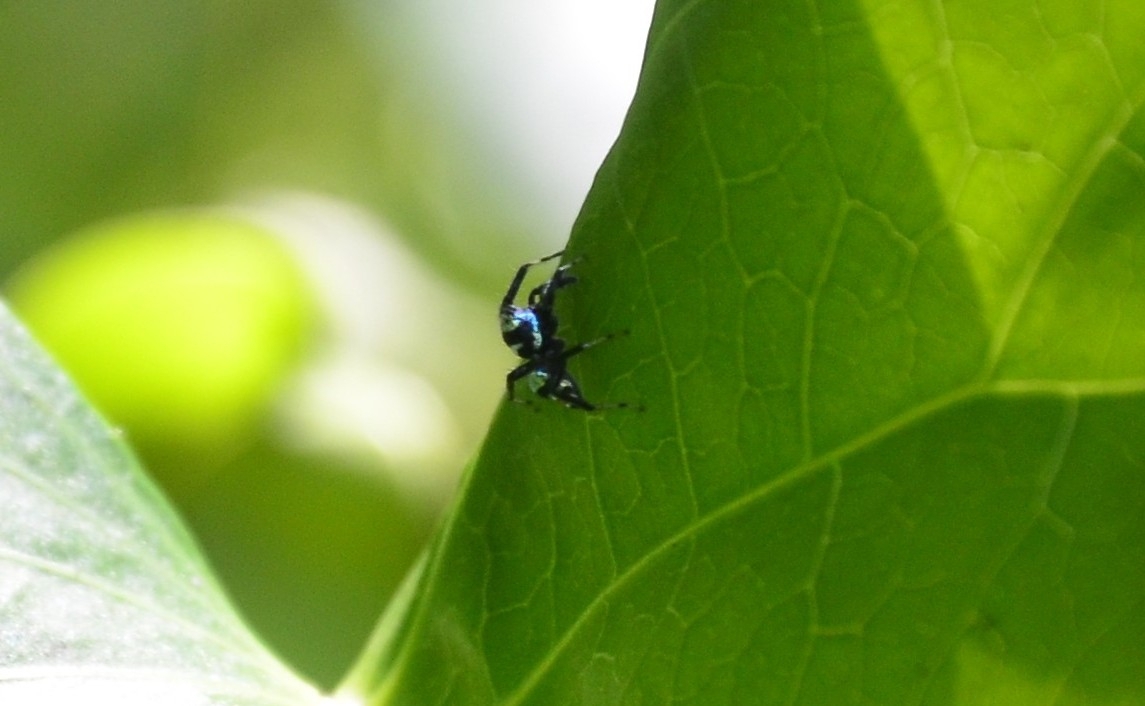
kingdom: Animalia
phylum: Arthropoda
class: Arachnida
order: Araneae
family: Salticidae
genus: Phintella
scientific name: Phintella vittata
